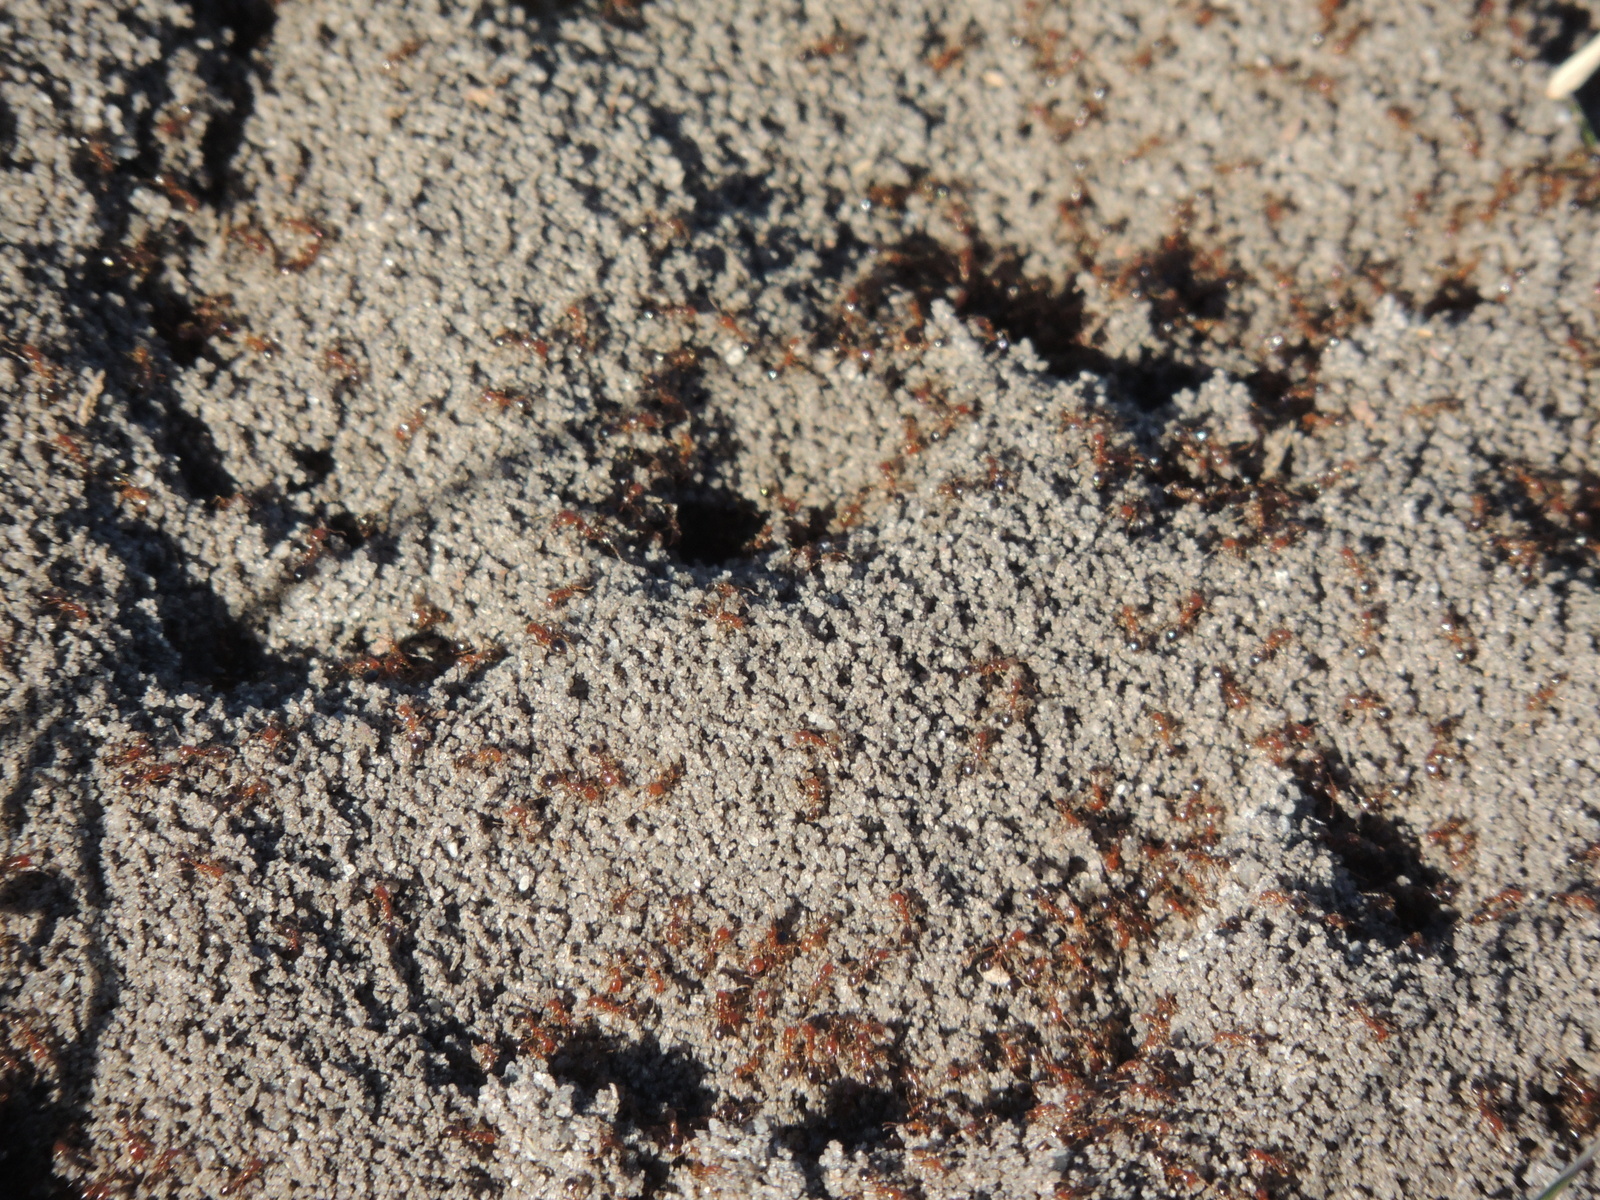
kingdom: Animalia
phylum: Arthropoda
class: Insecta
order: Hymenoptera
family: Formicidae
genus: Solenopsis
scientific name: Solenopsis invicta
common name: Red imported fire ant
